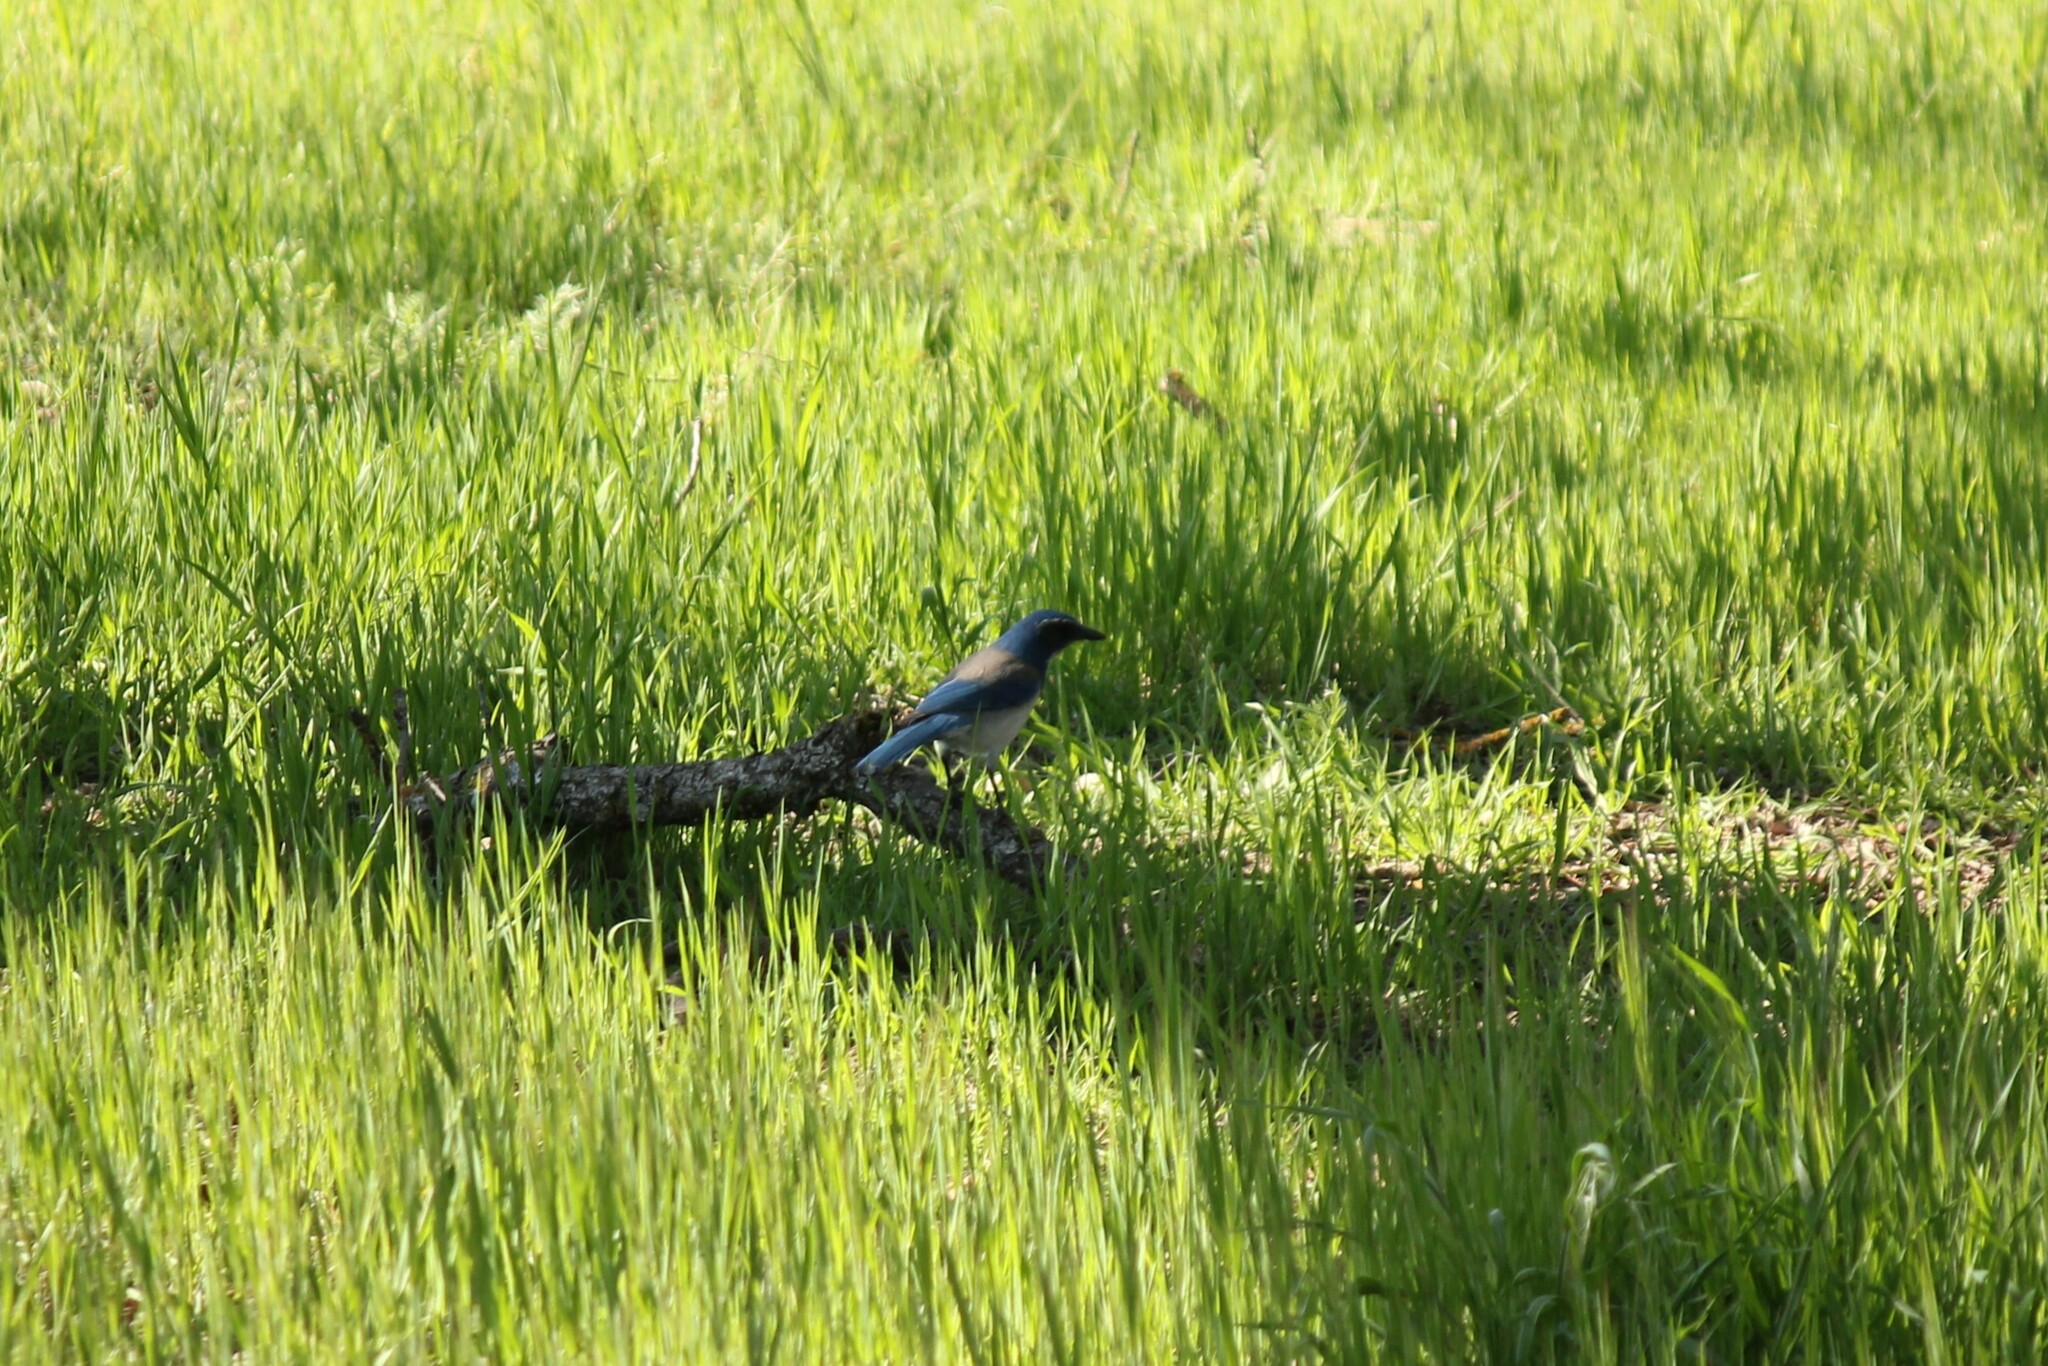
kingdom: Animalia
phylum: Chordata
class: Aves
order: Passeriformes
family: Corvidae
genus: Aphelocoma
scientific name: Aphelocoma californica
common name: California scrub-jay
